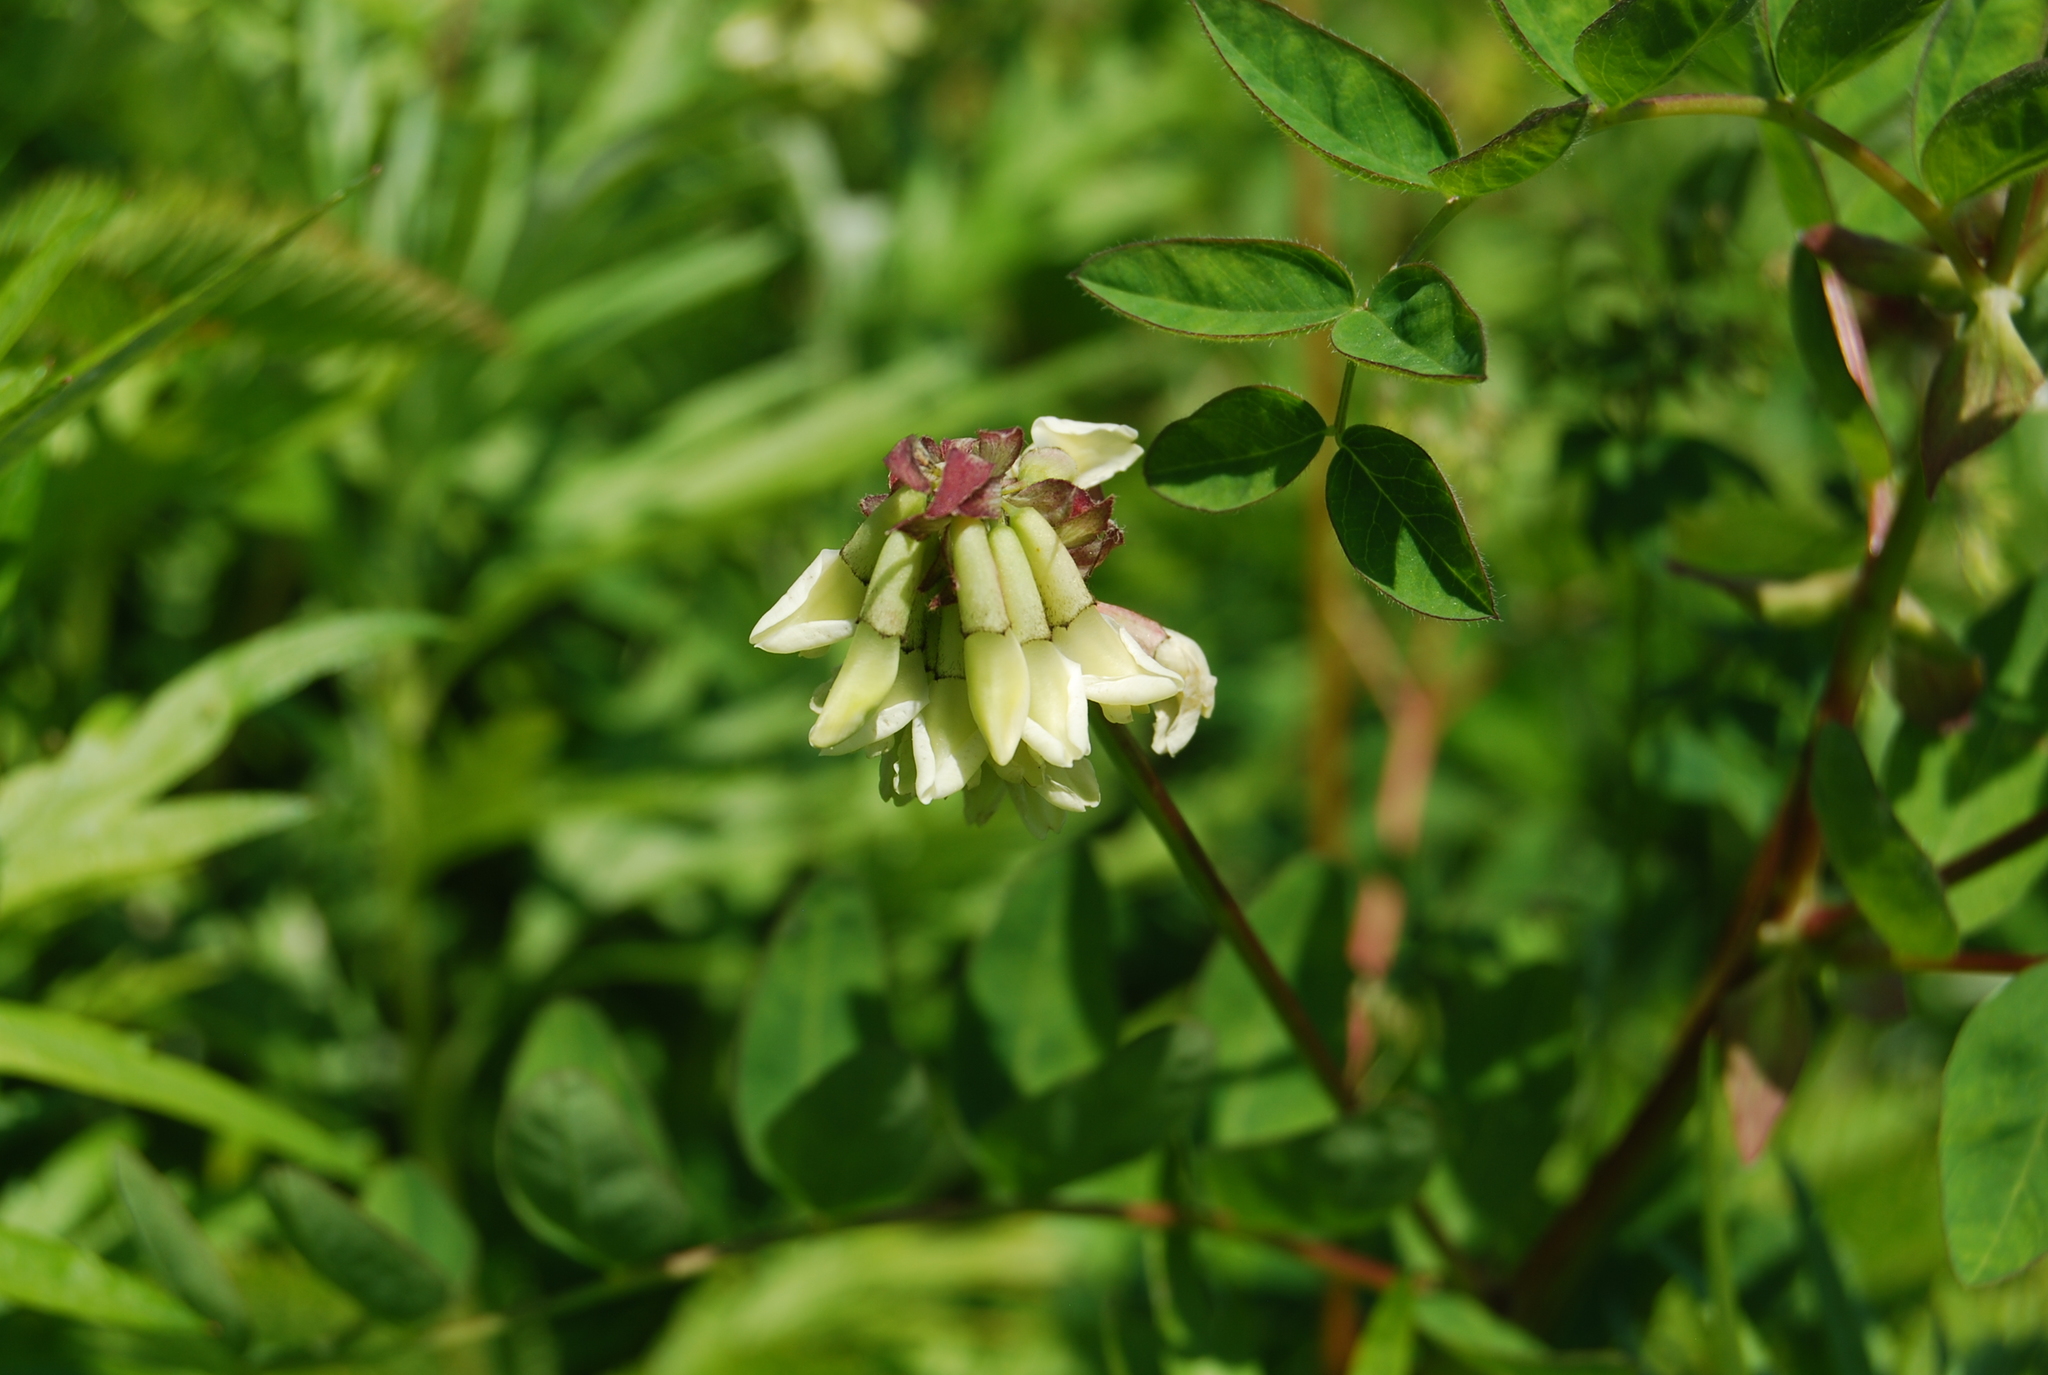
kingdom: Plantae
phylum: Tracheophyta
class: Magnoliopsida
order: Fabales
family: Fabaceae
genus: Astragalus
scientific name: Astragalus frigidus
